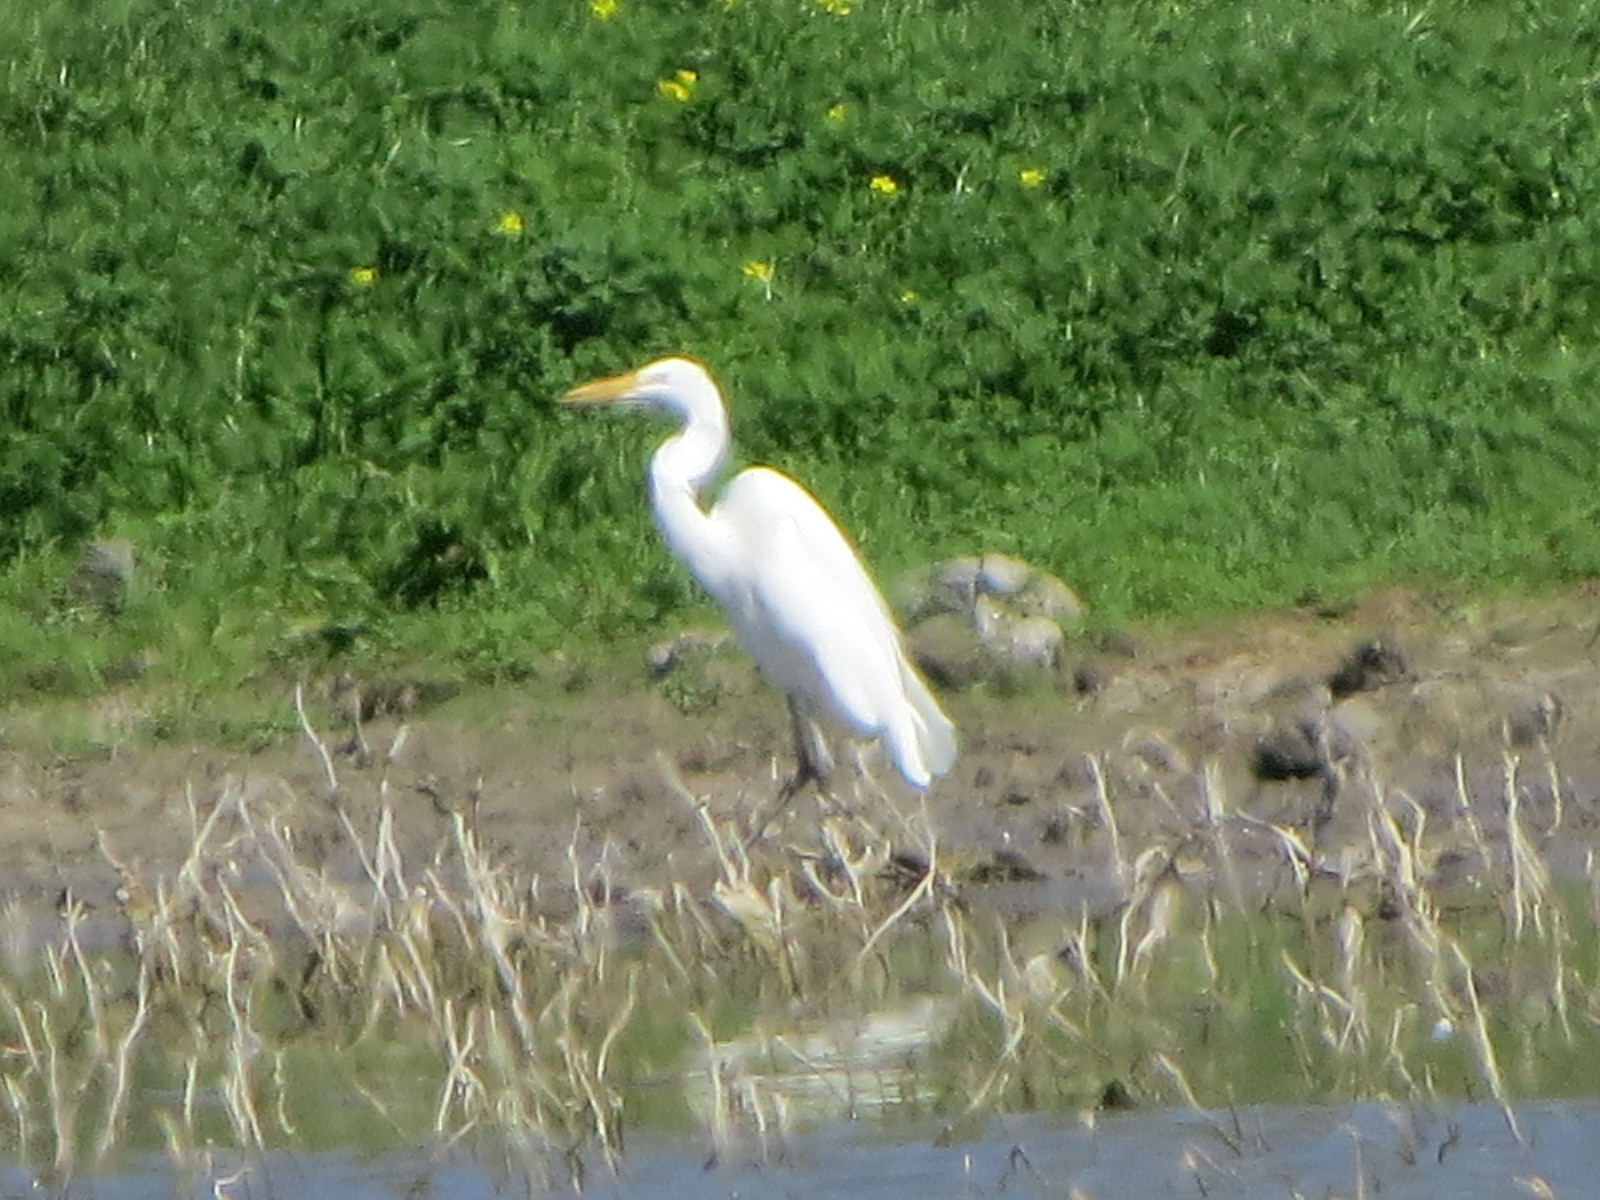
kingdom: Animalia
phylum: Chordata
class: Aves
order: Pelecaniformes
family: Ardeidae
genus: Ardea
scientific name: Ardea alba
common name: Great egret
